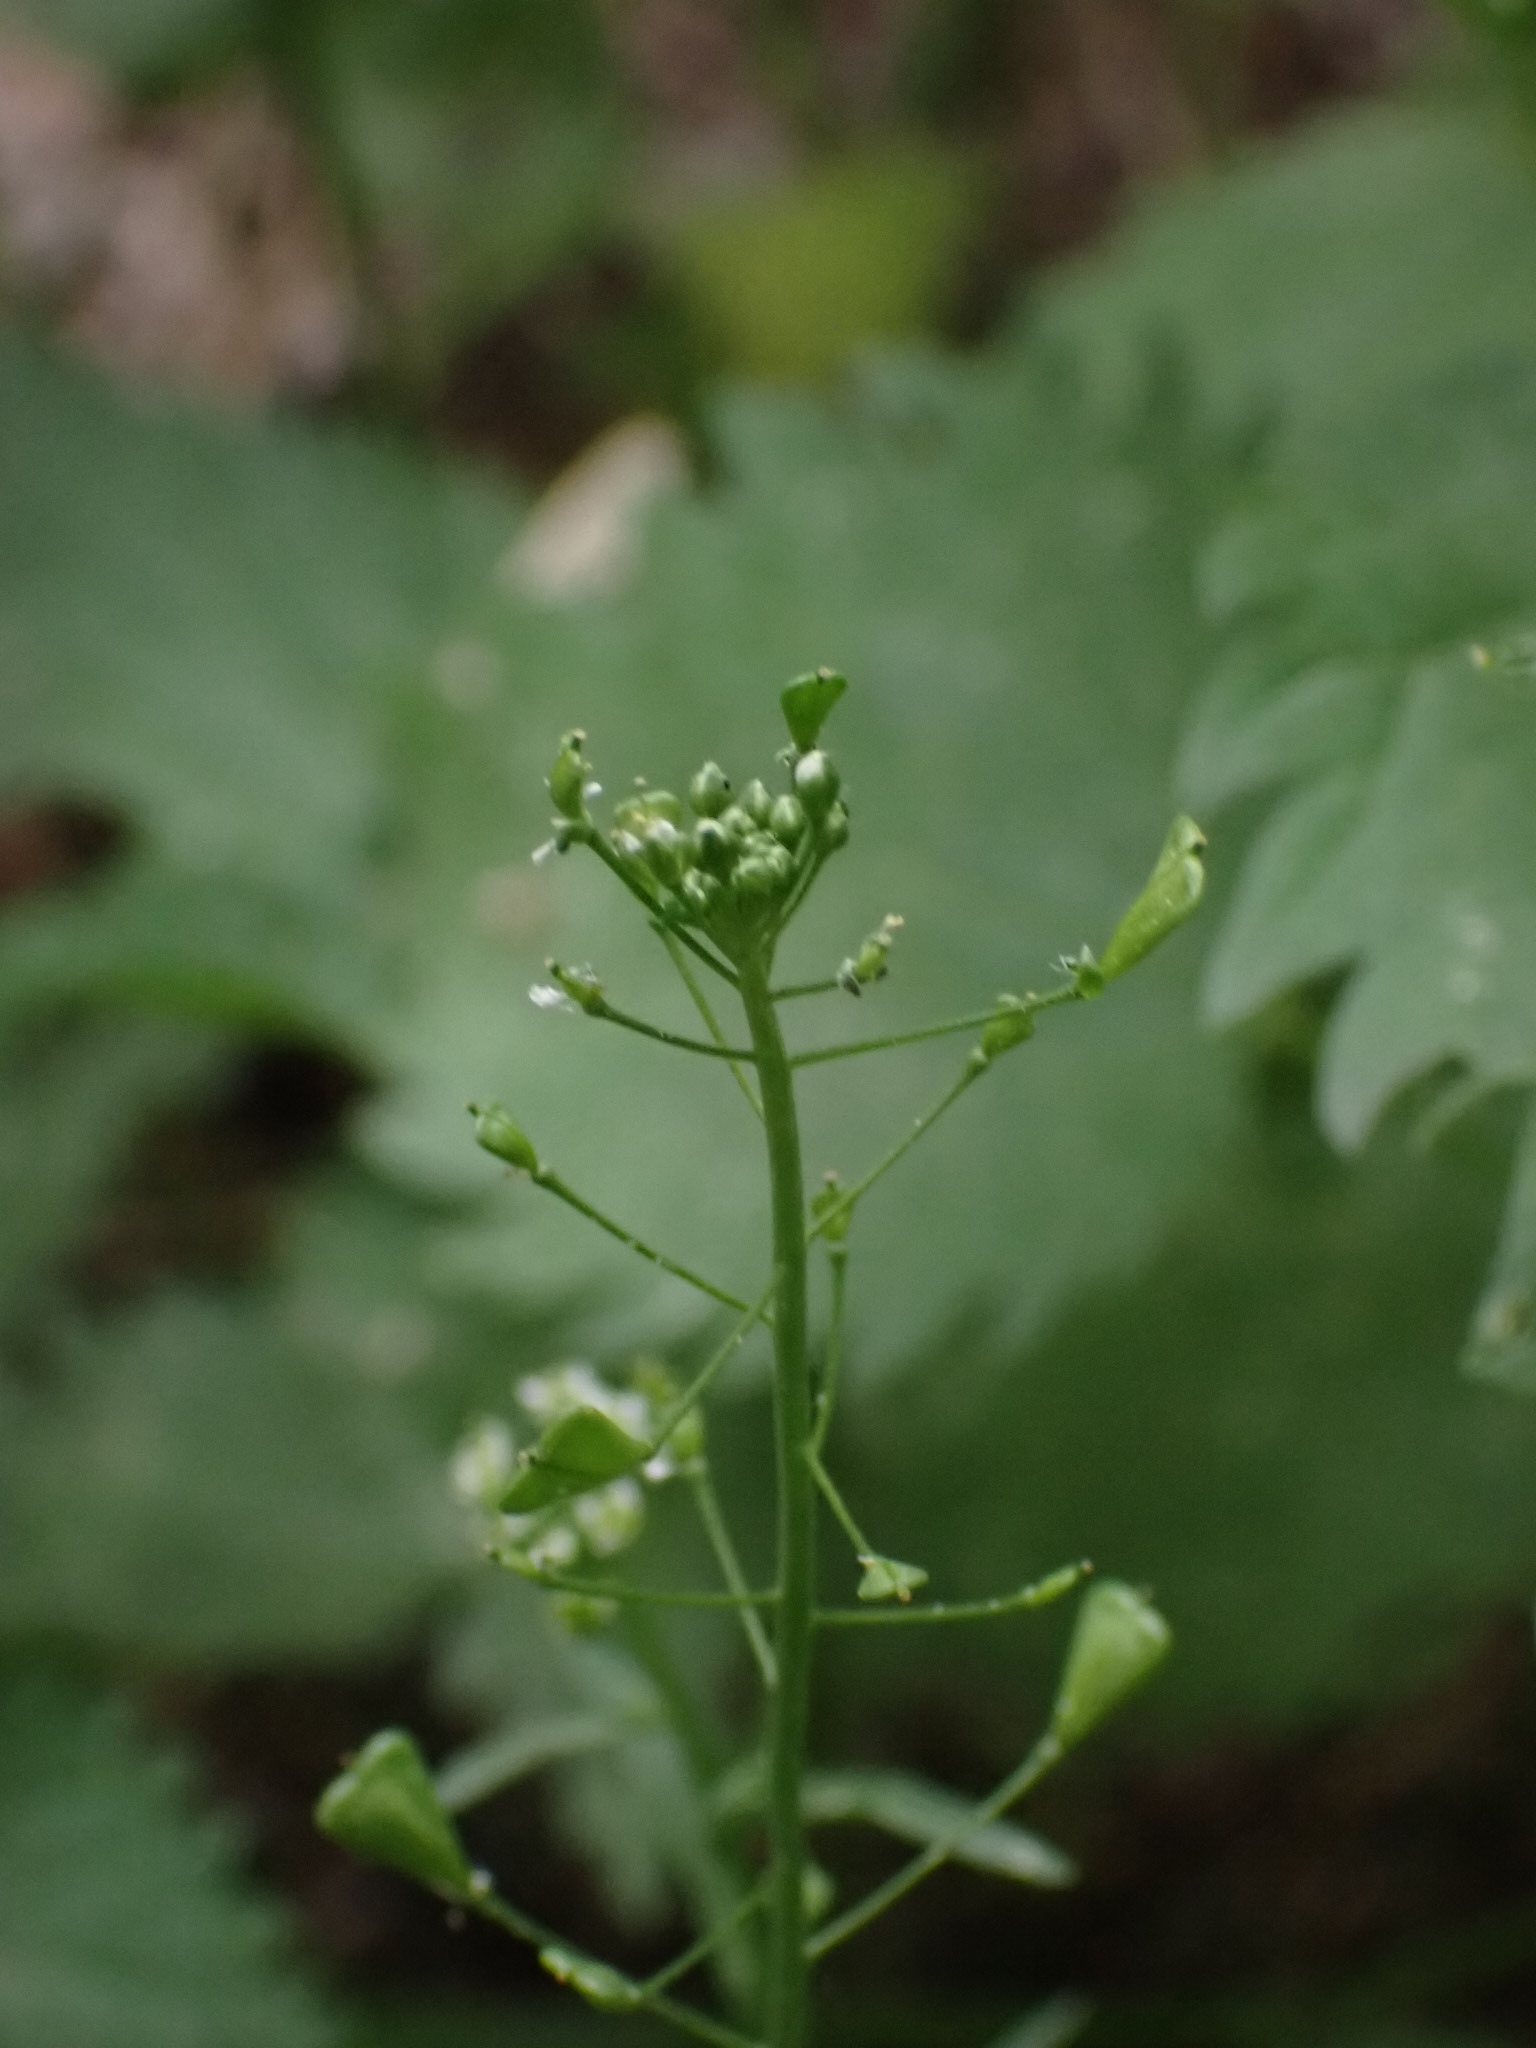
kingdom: Plantae
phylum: Tracheophyta
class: Magnoliopsida
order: Brassicales
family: Brassicaceae
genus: Capsella
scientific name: Capsella bursa-pastoris
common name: Shepherd's purse
